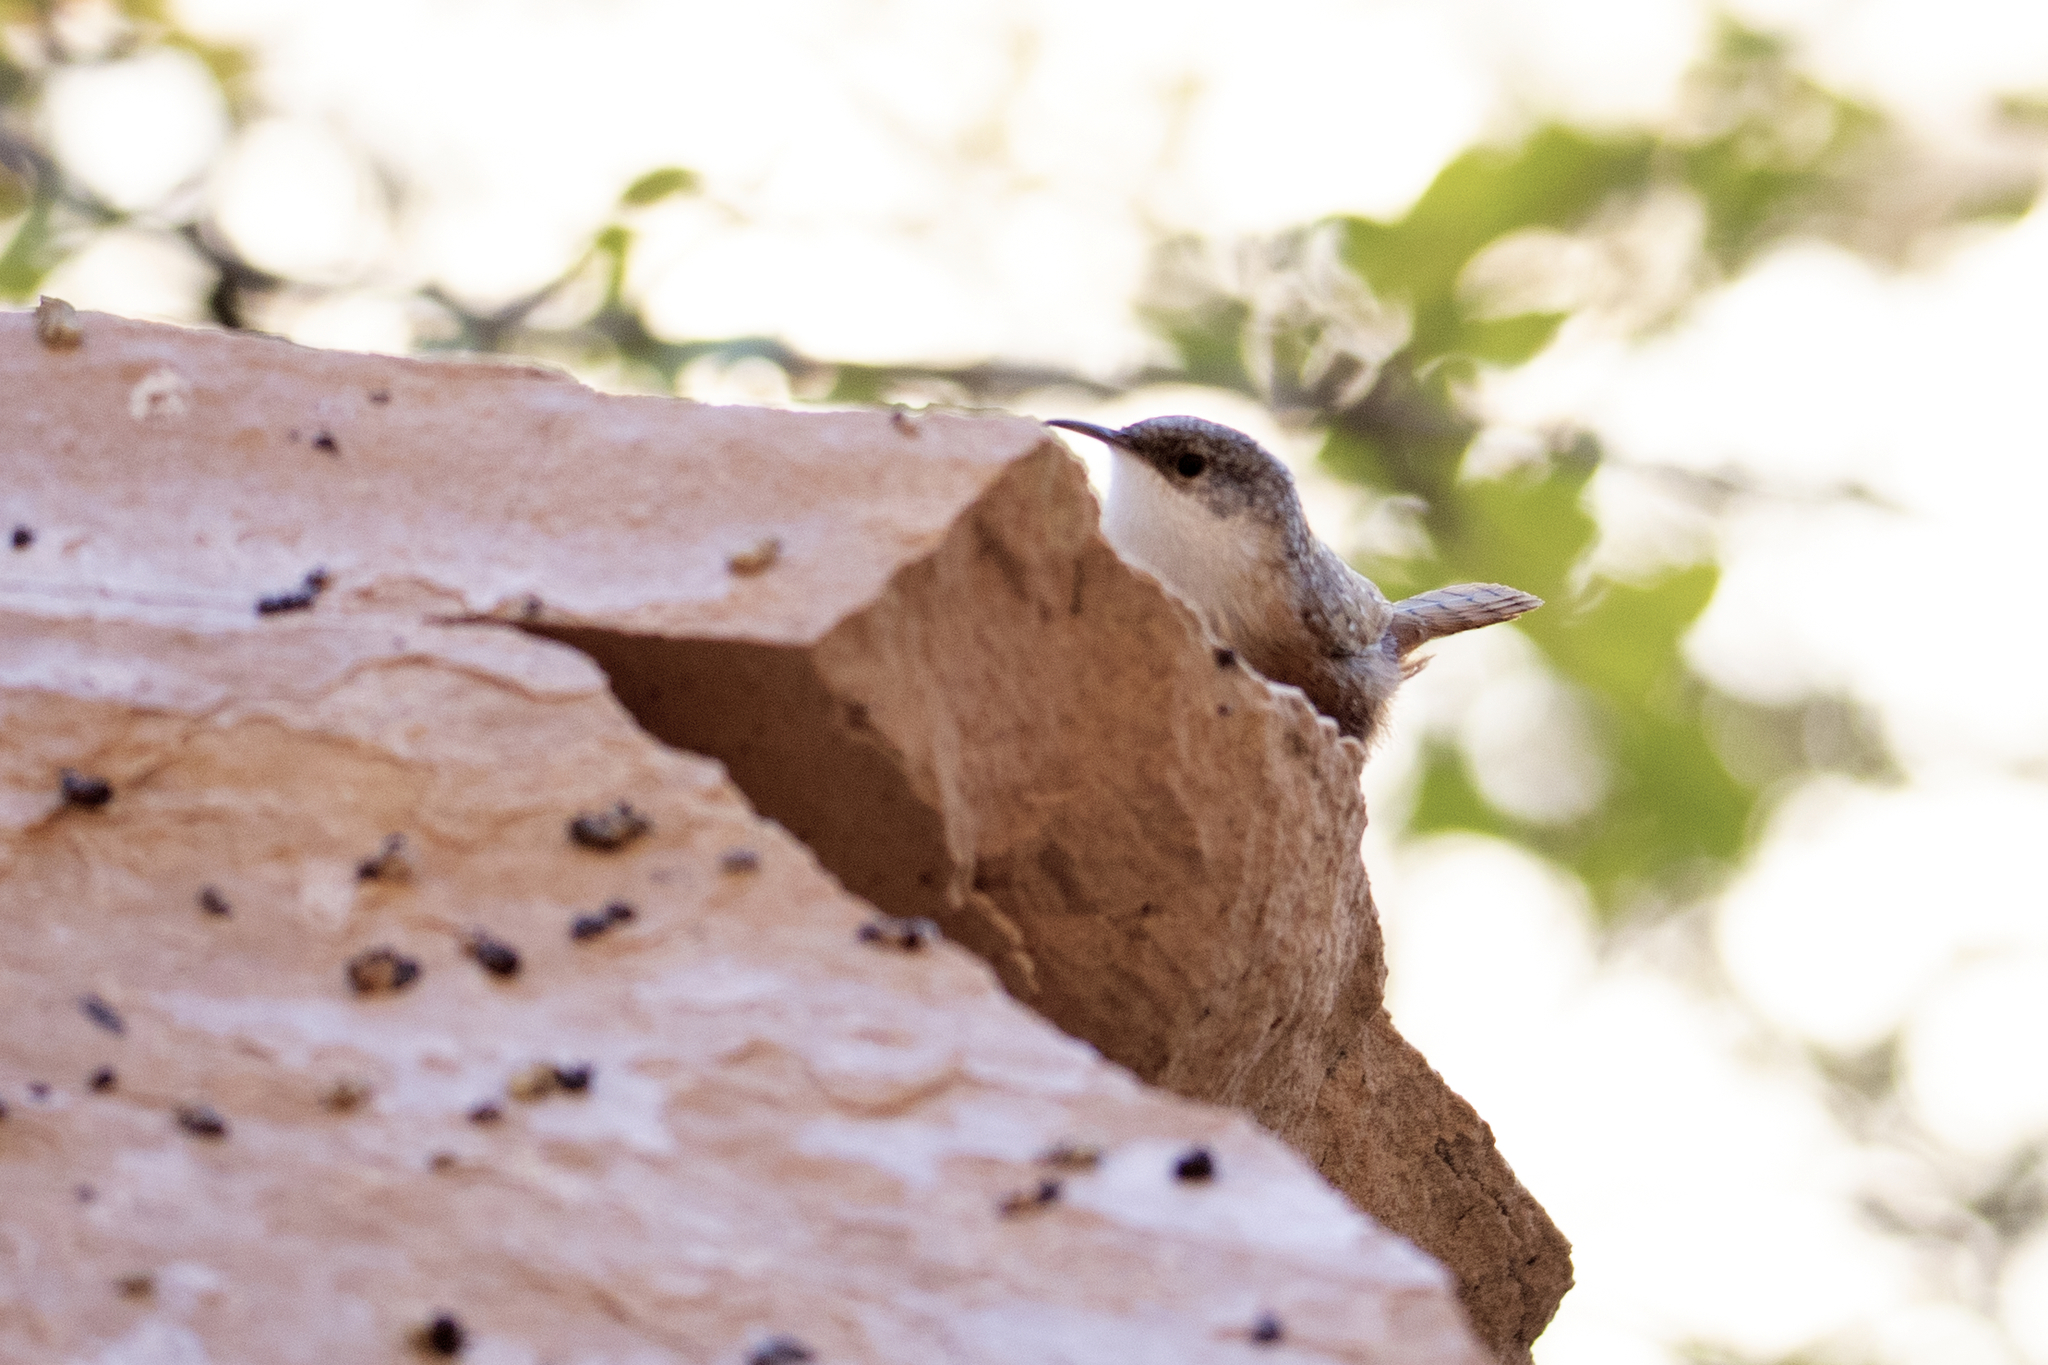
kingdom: Animalia
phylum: Chordata
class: Aves
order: Passeriformes
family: Troglodytidae
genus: Catherpes
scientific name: Catherpes mexicanus
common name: Canyon wren
